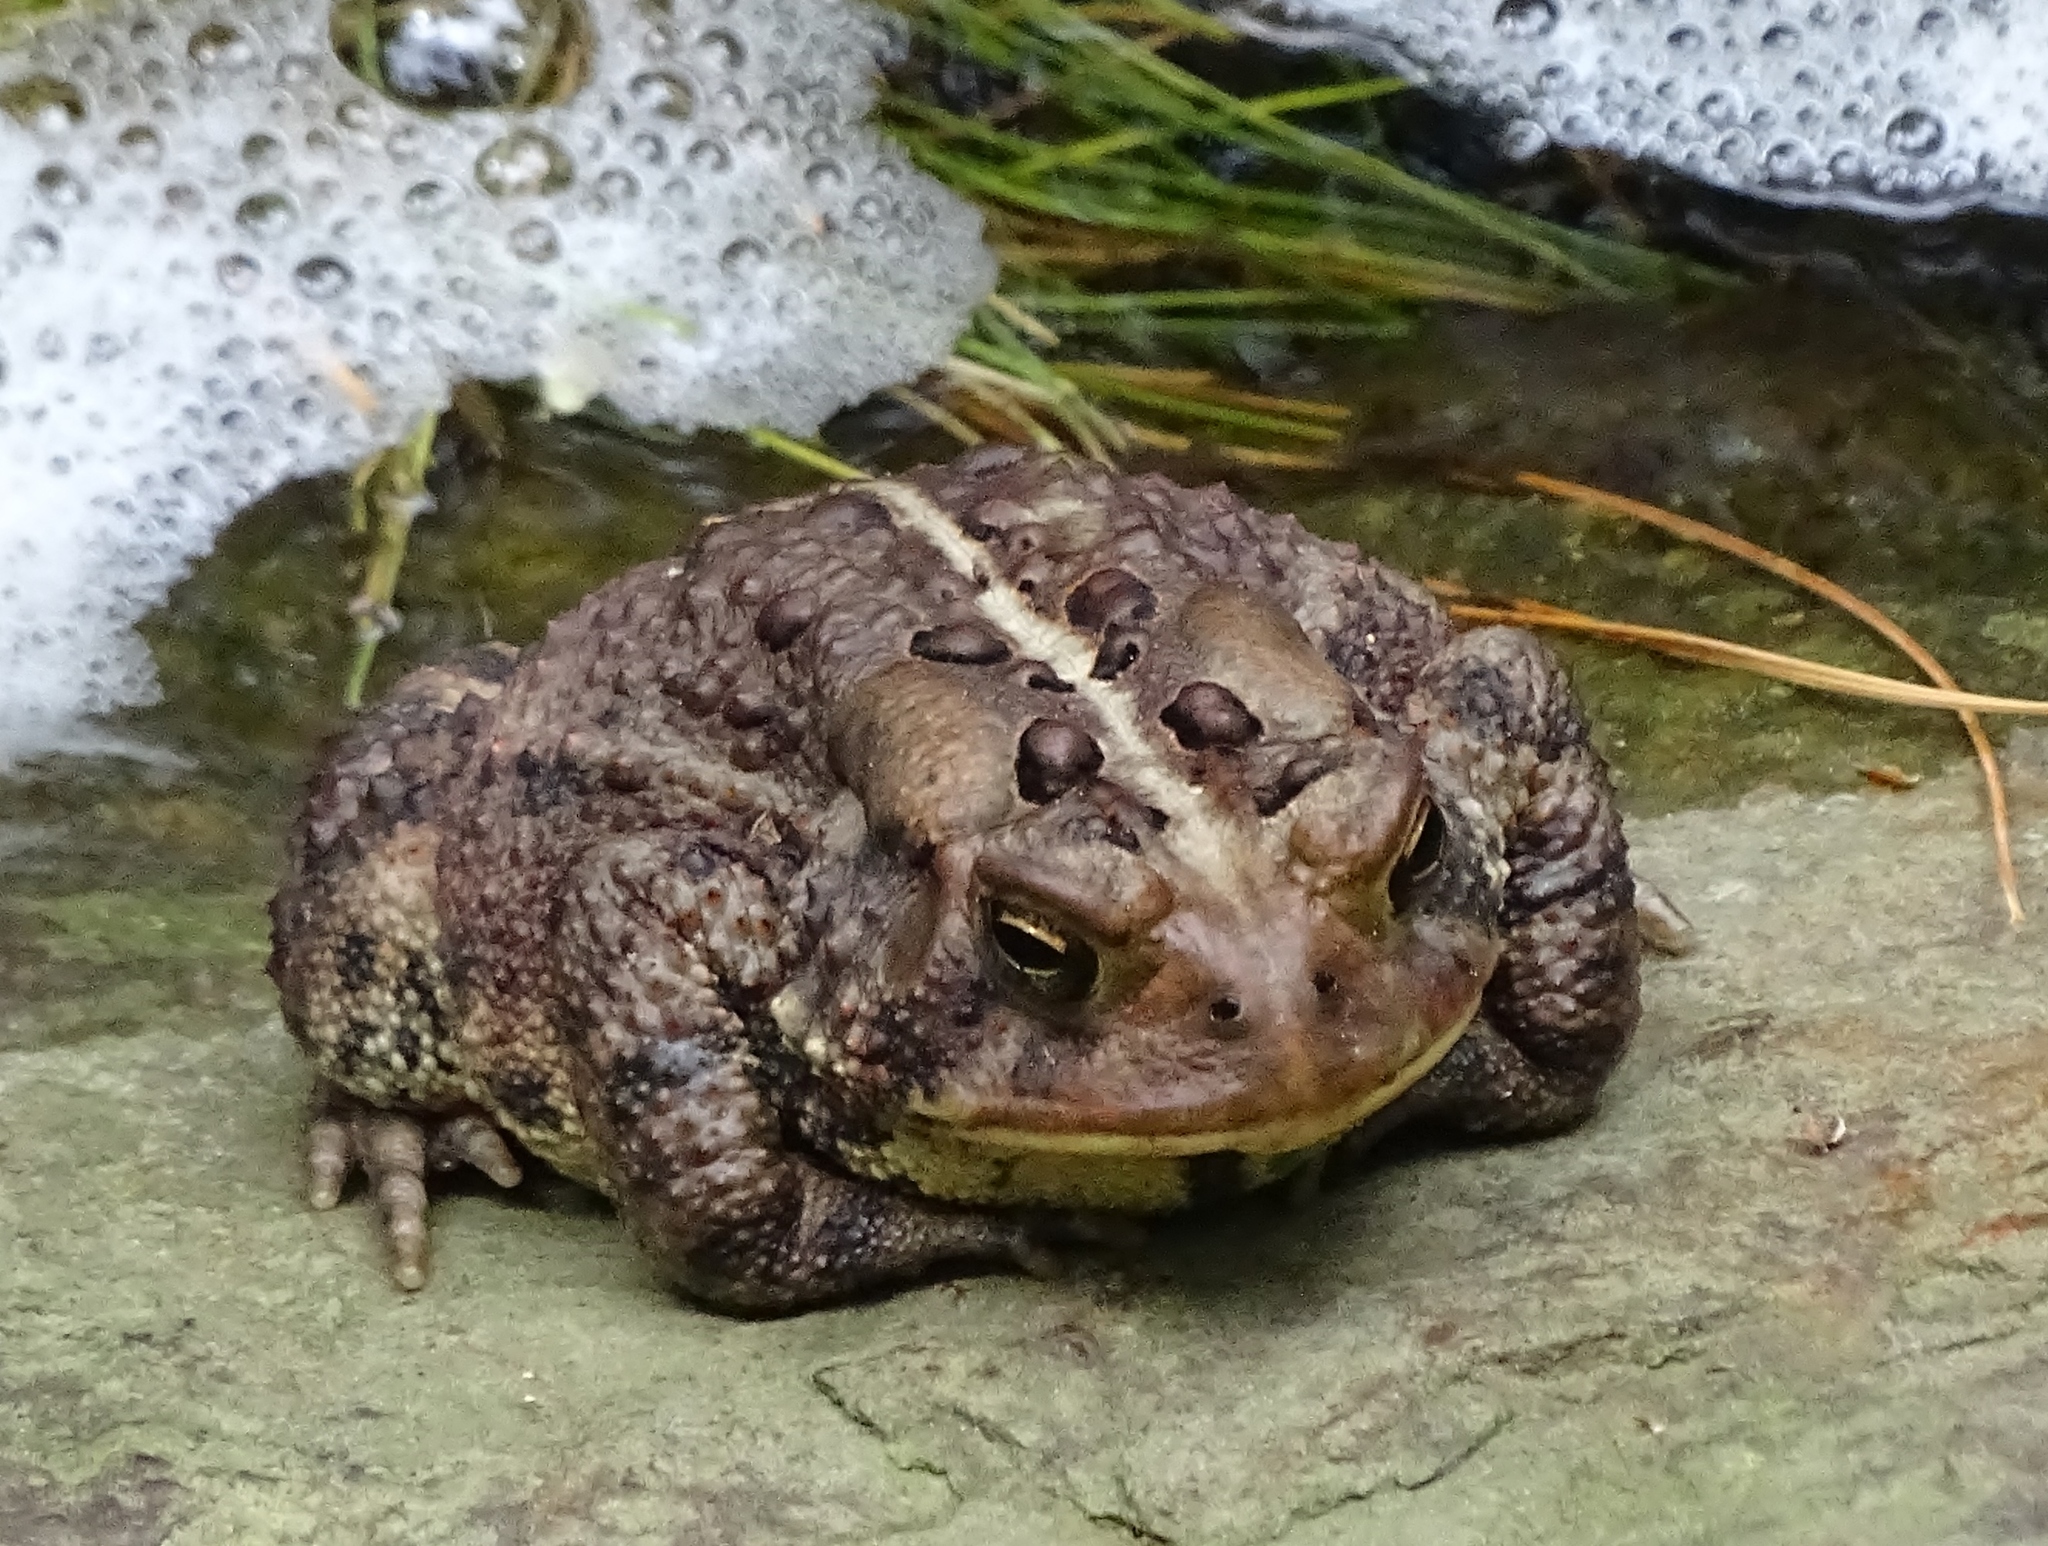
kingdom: Animalia
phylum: Chordata
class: Amphibia
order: Anura
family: Bufonidae
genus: Anaxyrus
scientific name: Anaxyrus americanus
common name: American toad
